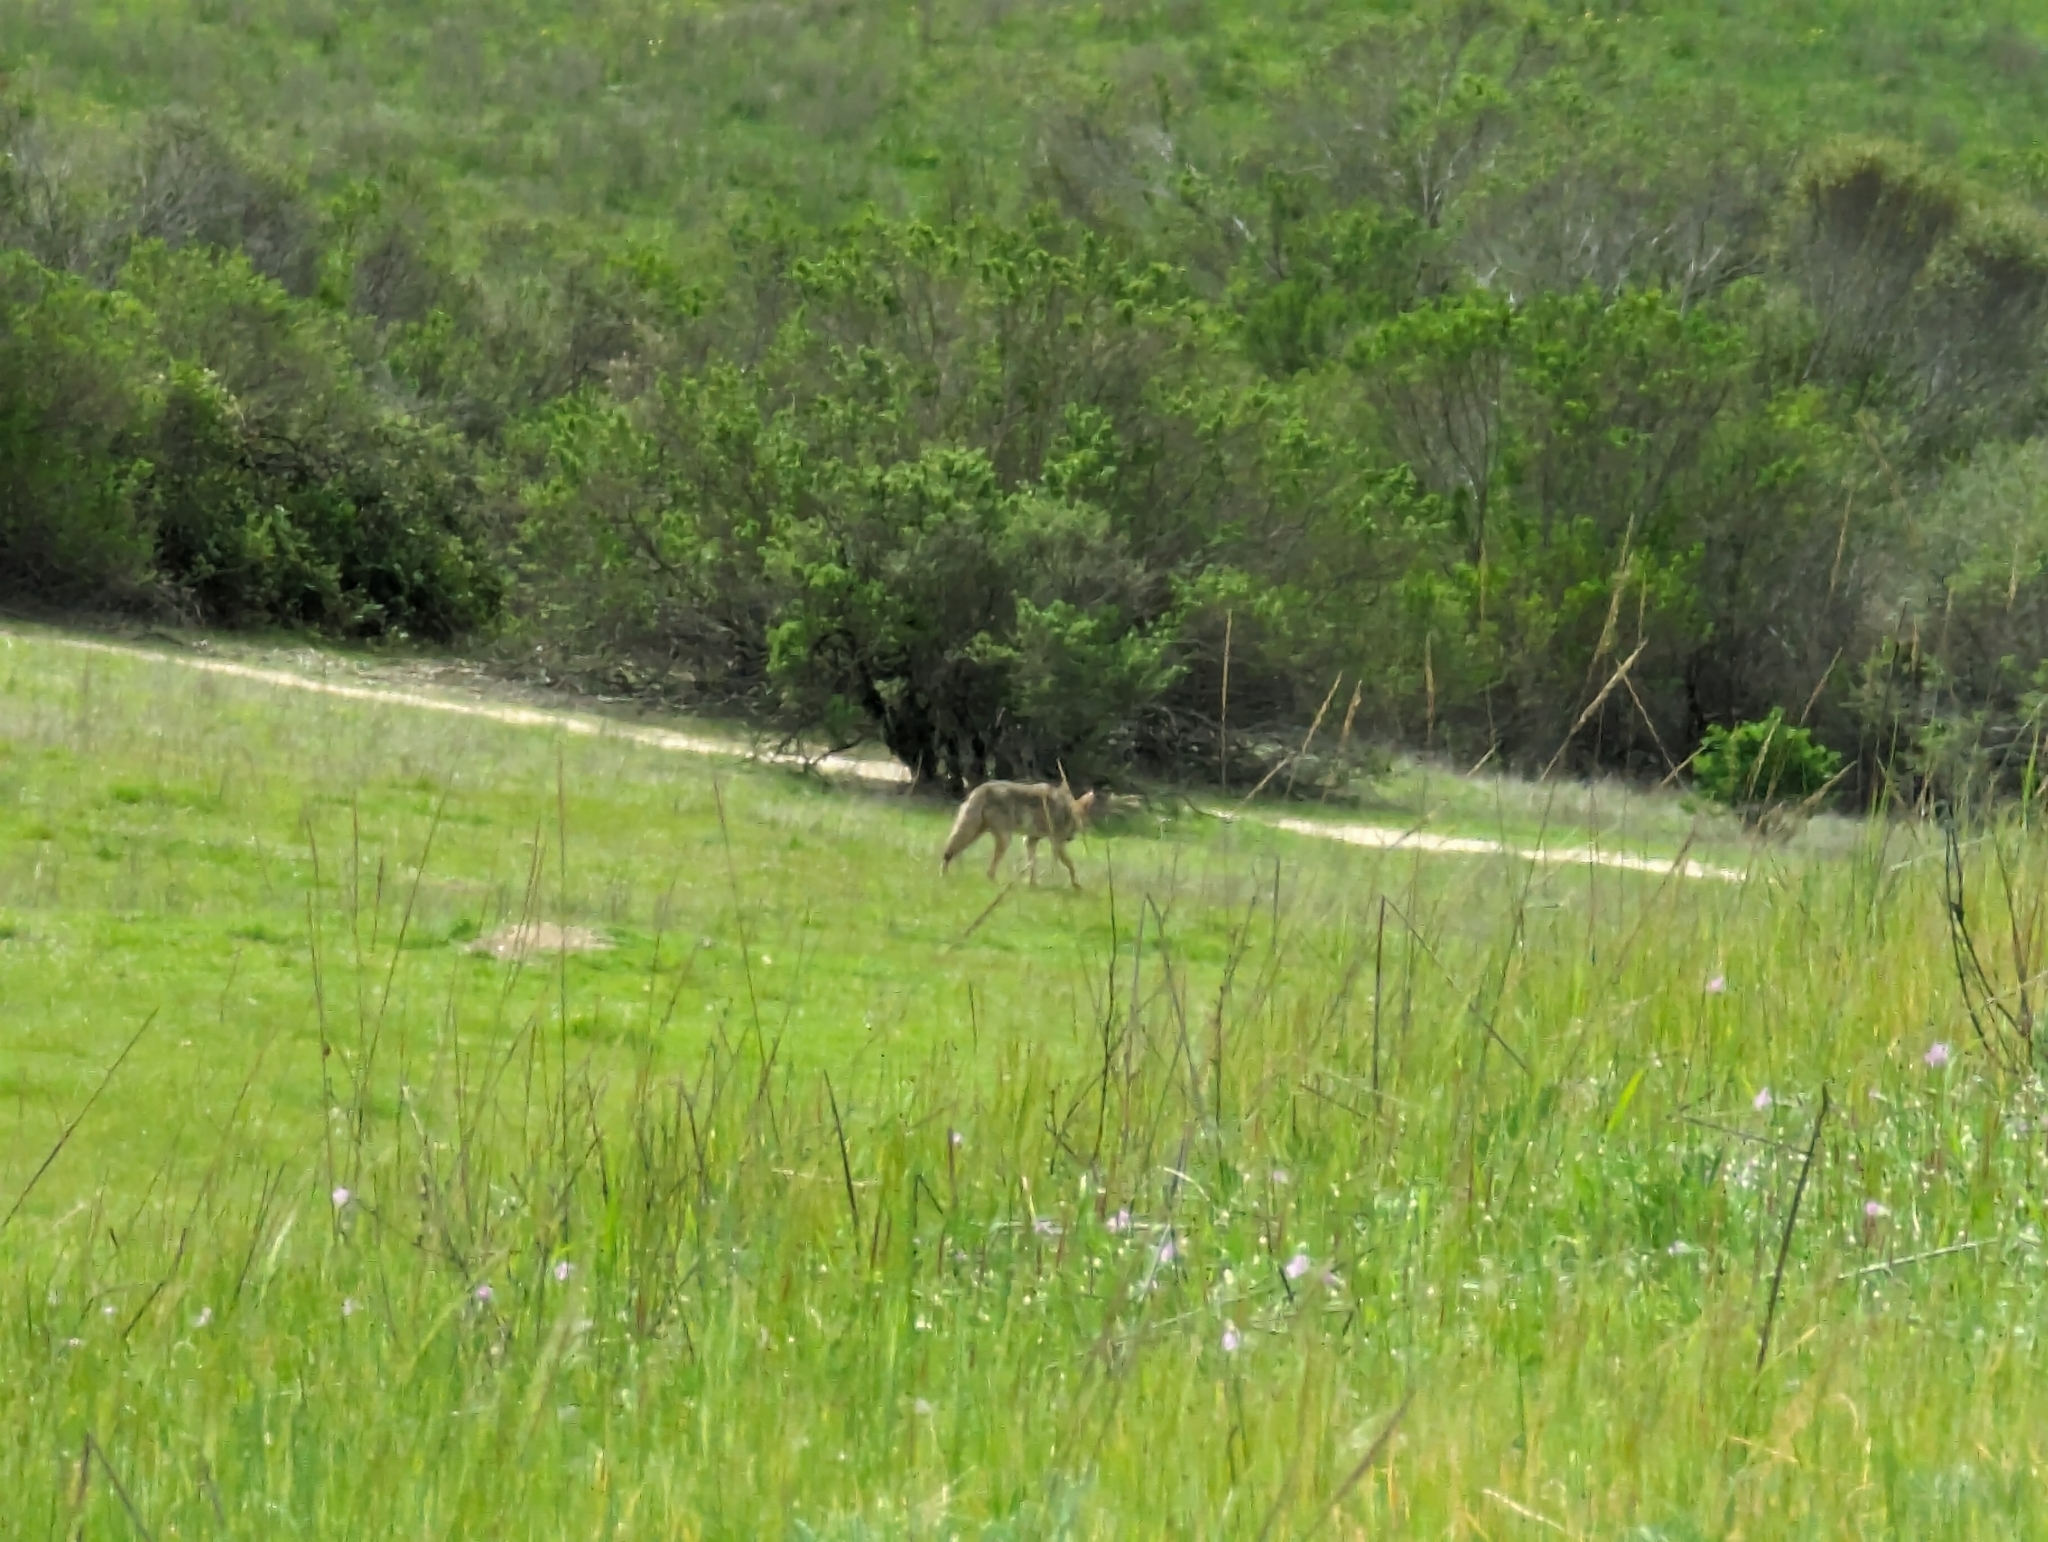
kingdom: Animalia
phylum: Chordata
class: Mammalia
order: Carnivora
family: Canidae
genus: Canis
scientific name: Canis latrans
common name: Coyote
